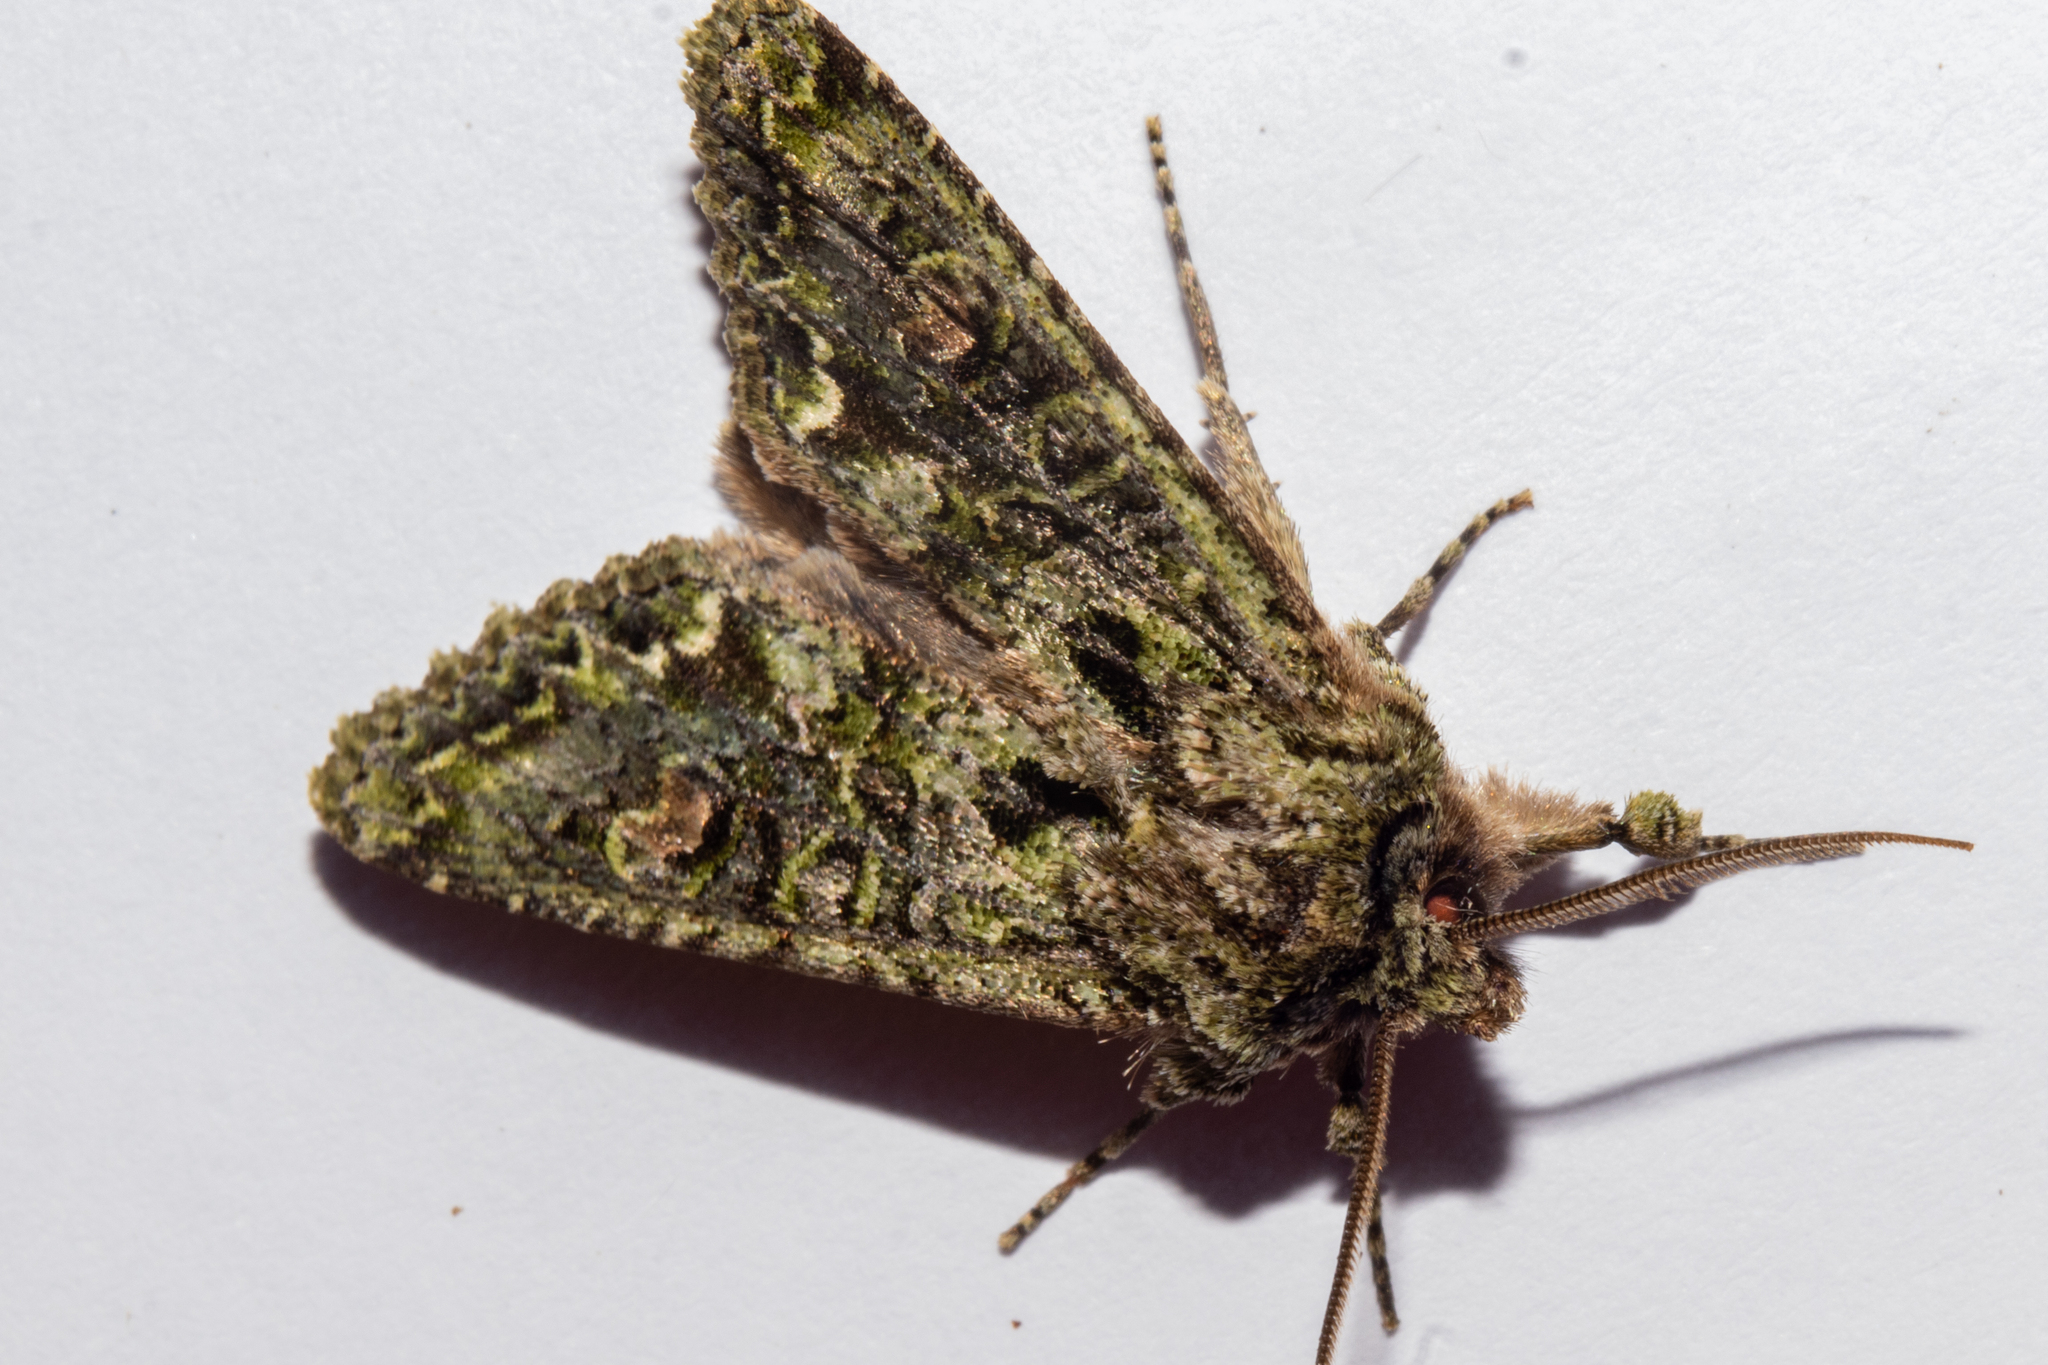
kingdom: Animalia
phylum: Arthropoda
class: Insecta
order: Lepidoptera
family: Noctuidae
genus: Ichneutica
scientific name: Ichneutica
